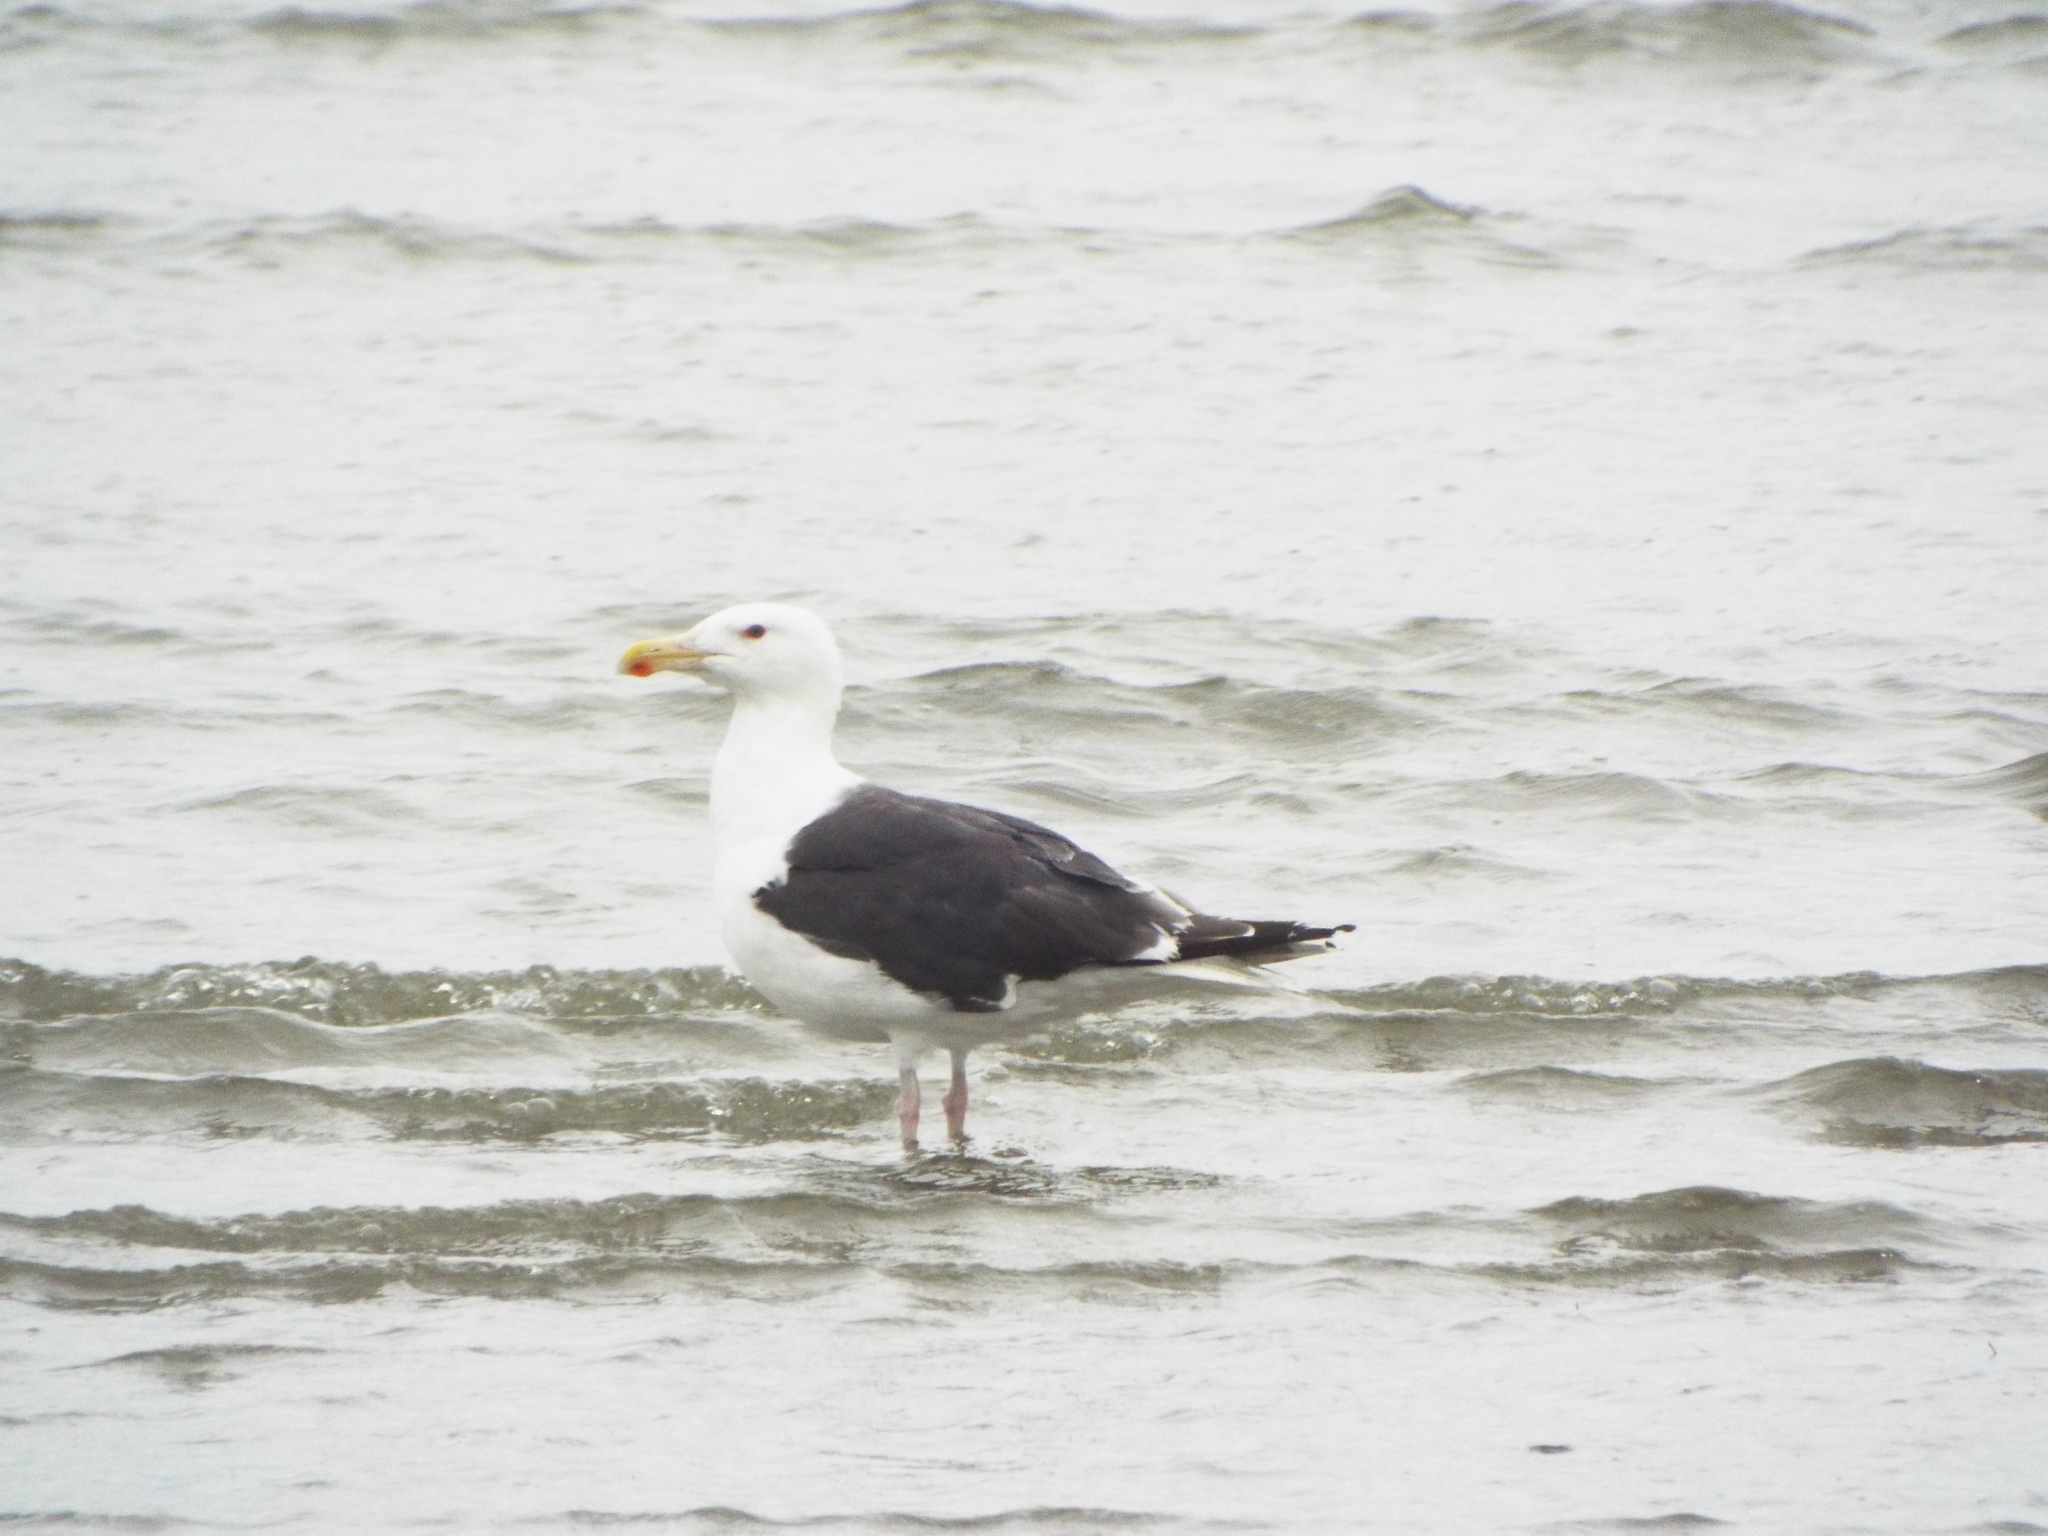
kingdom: Animalia
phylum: Chordata
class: Aves
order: Charadriiformes
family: Laridae
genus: Larus
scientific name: Larus marinus
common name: Great black-backed gull
